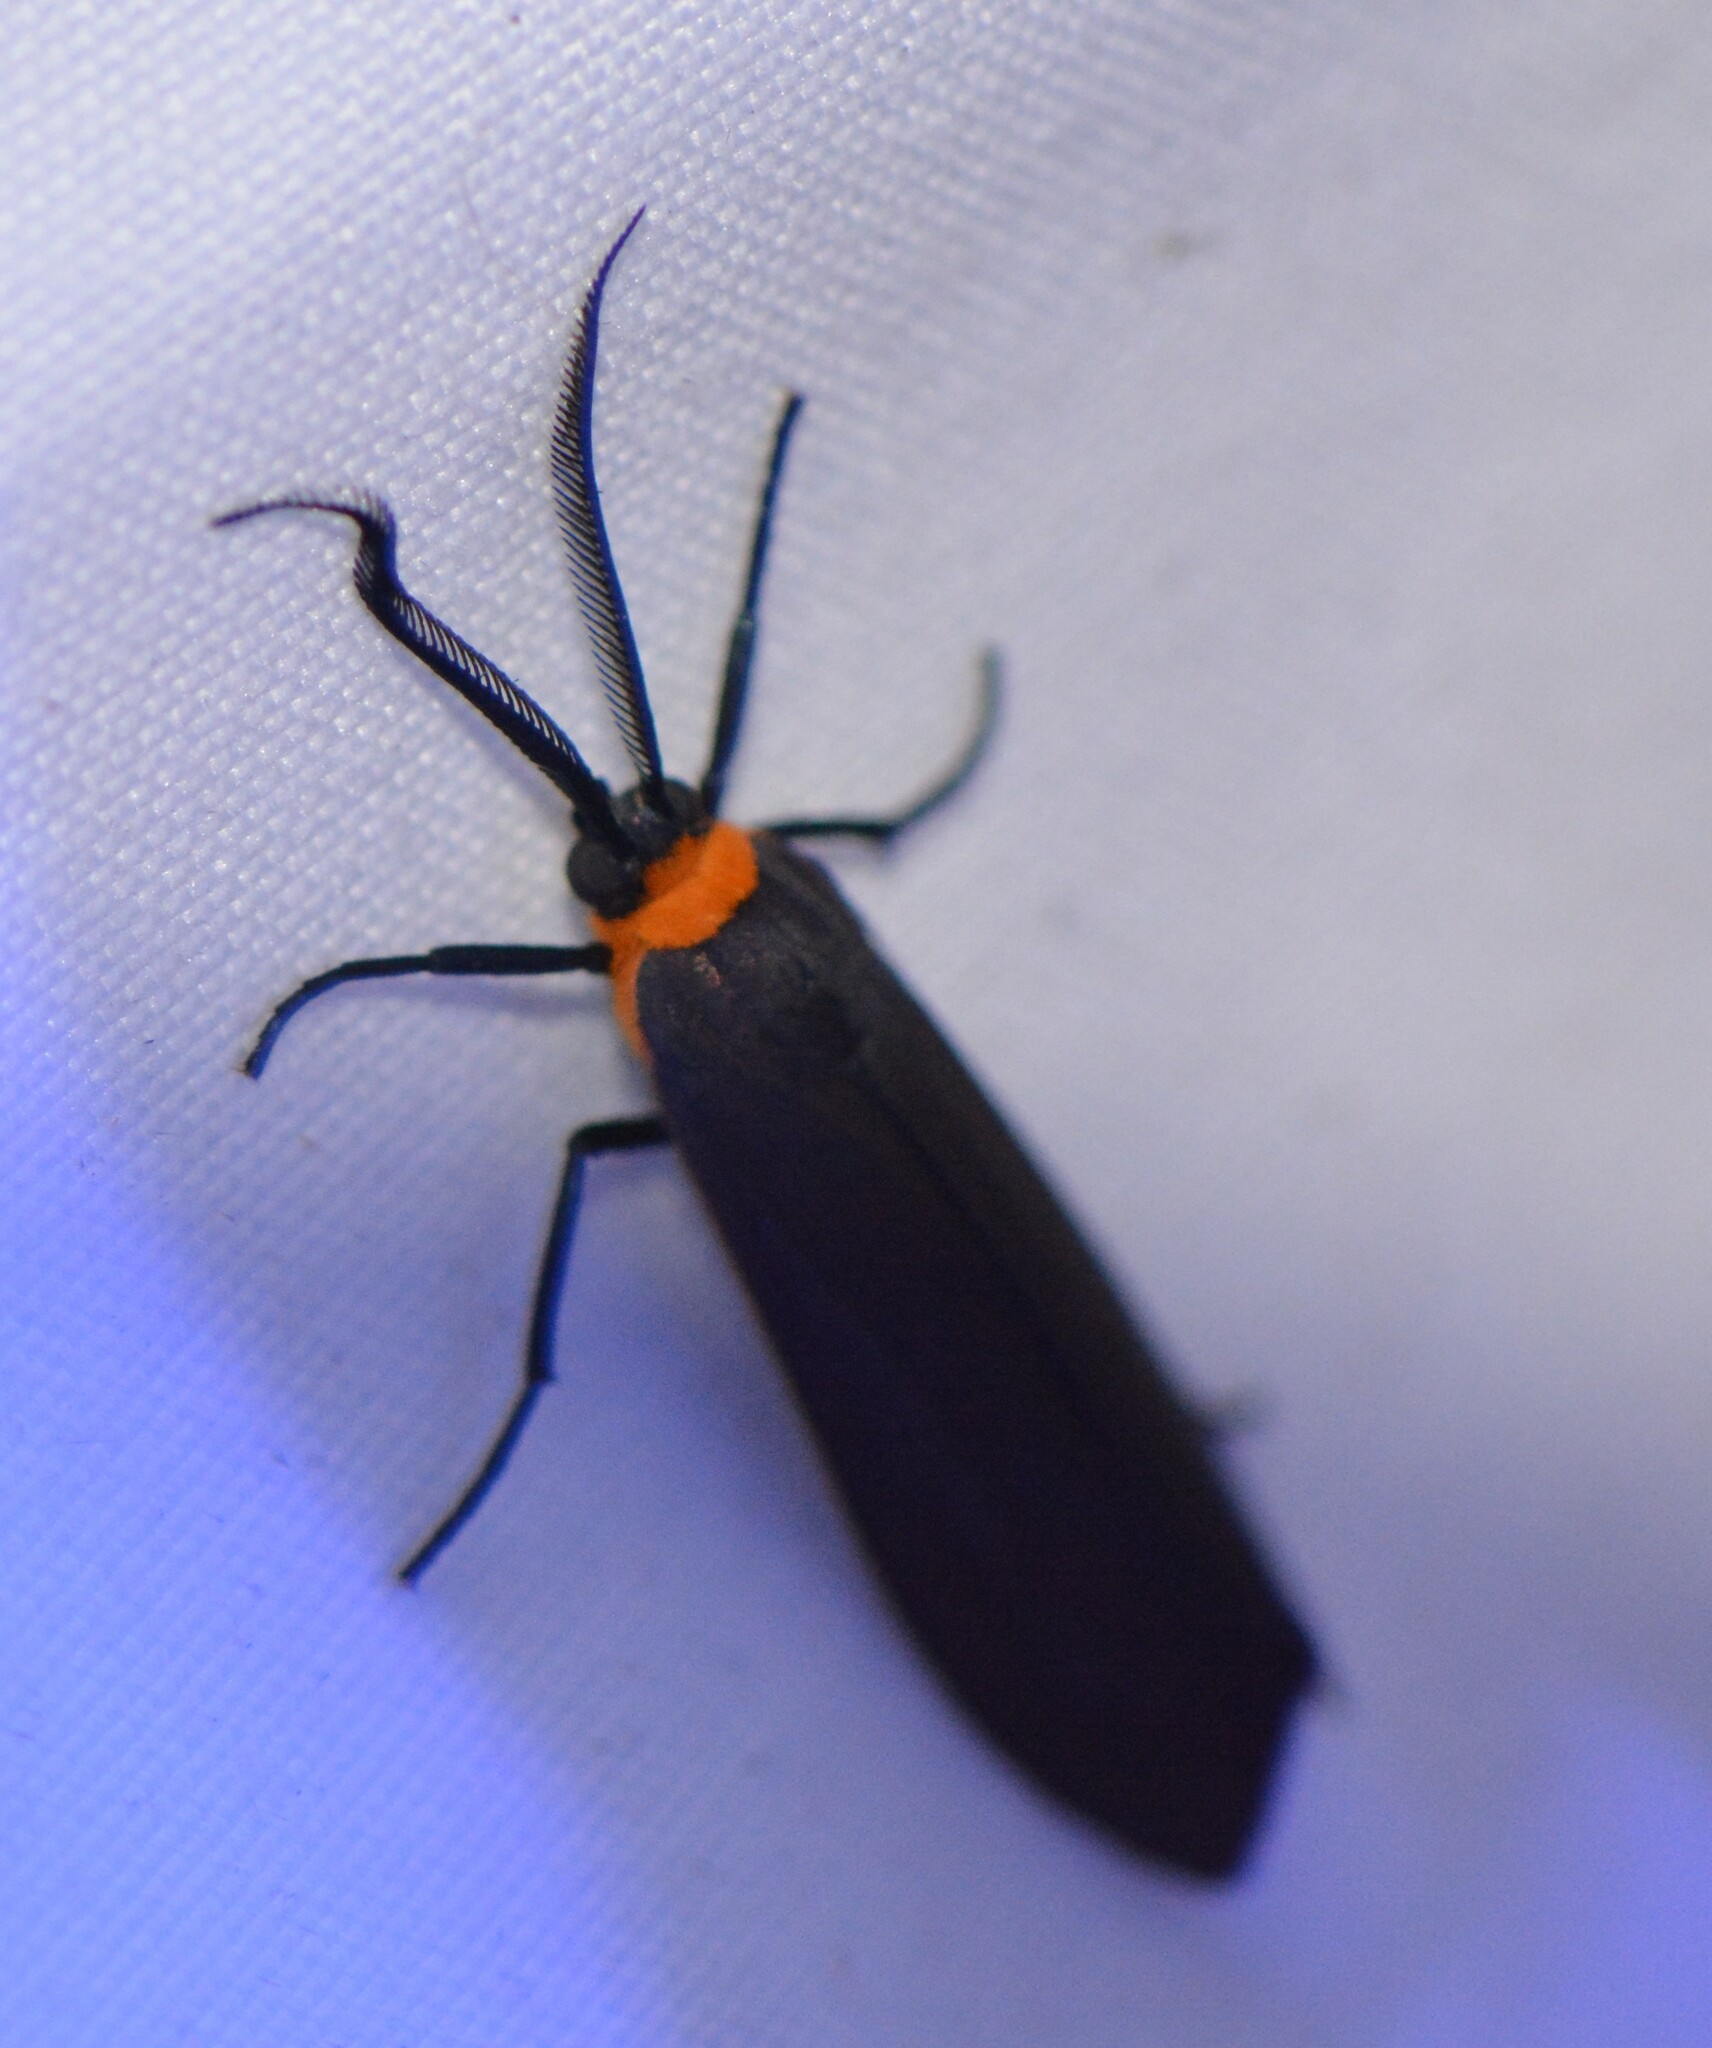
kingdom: Animalia
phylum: Arthropoda
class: Insecta
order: Lepidoptera
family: Erebidae
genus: Cisseps
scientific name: Cisseps fulvicollis
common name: Yellow-collared scape moth
